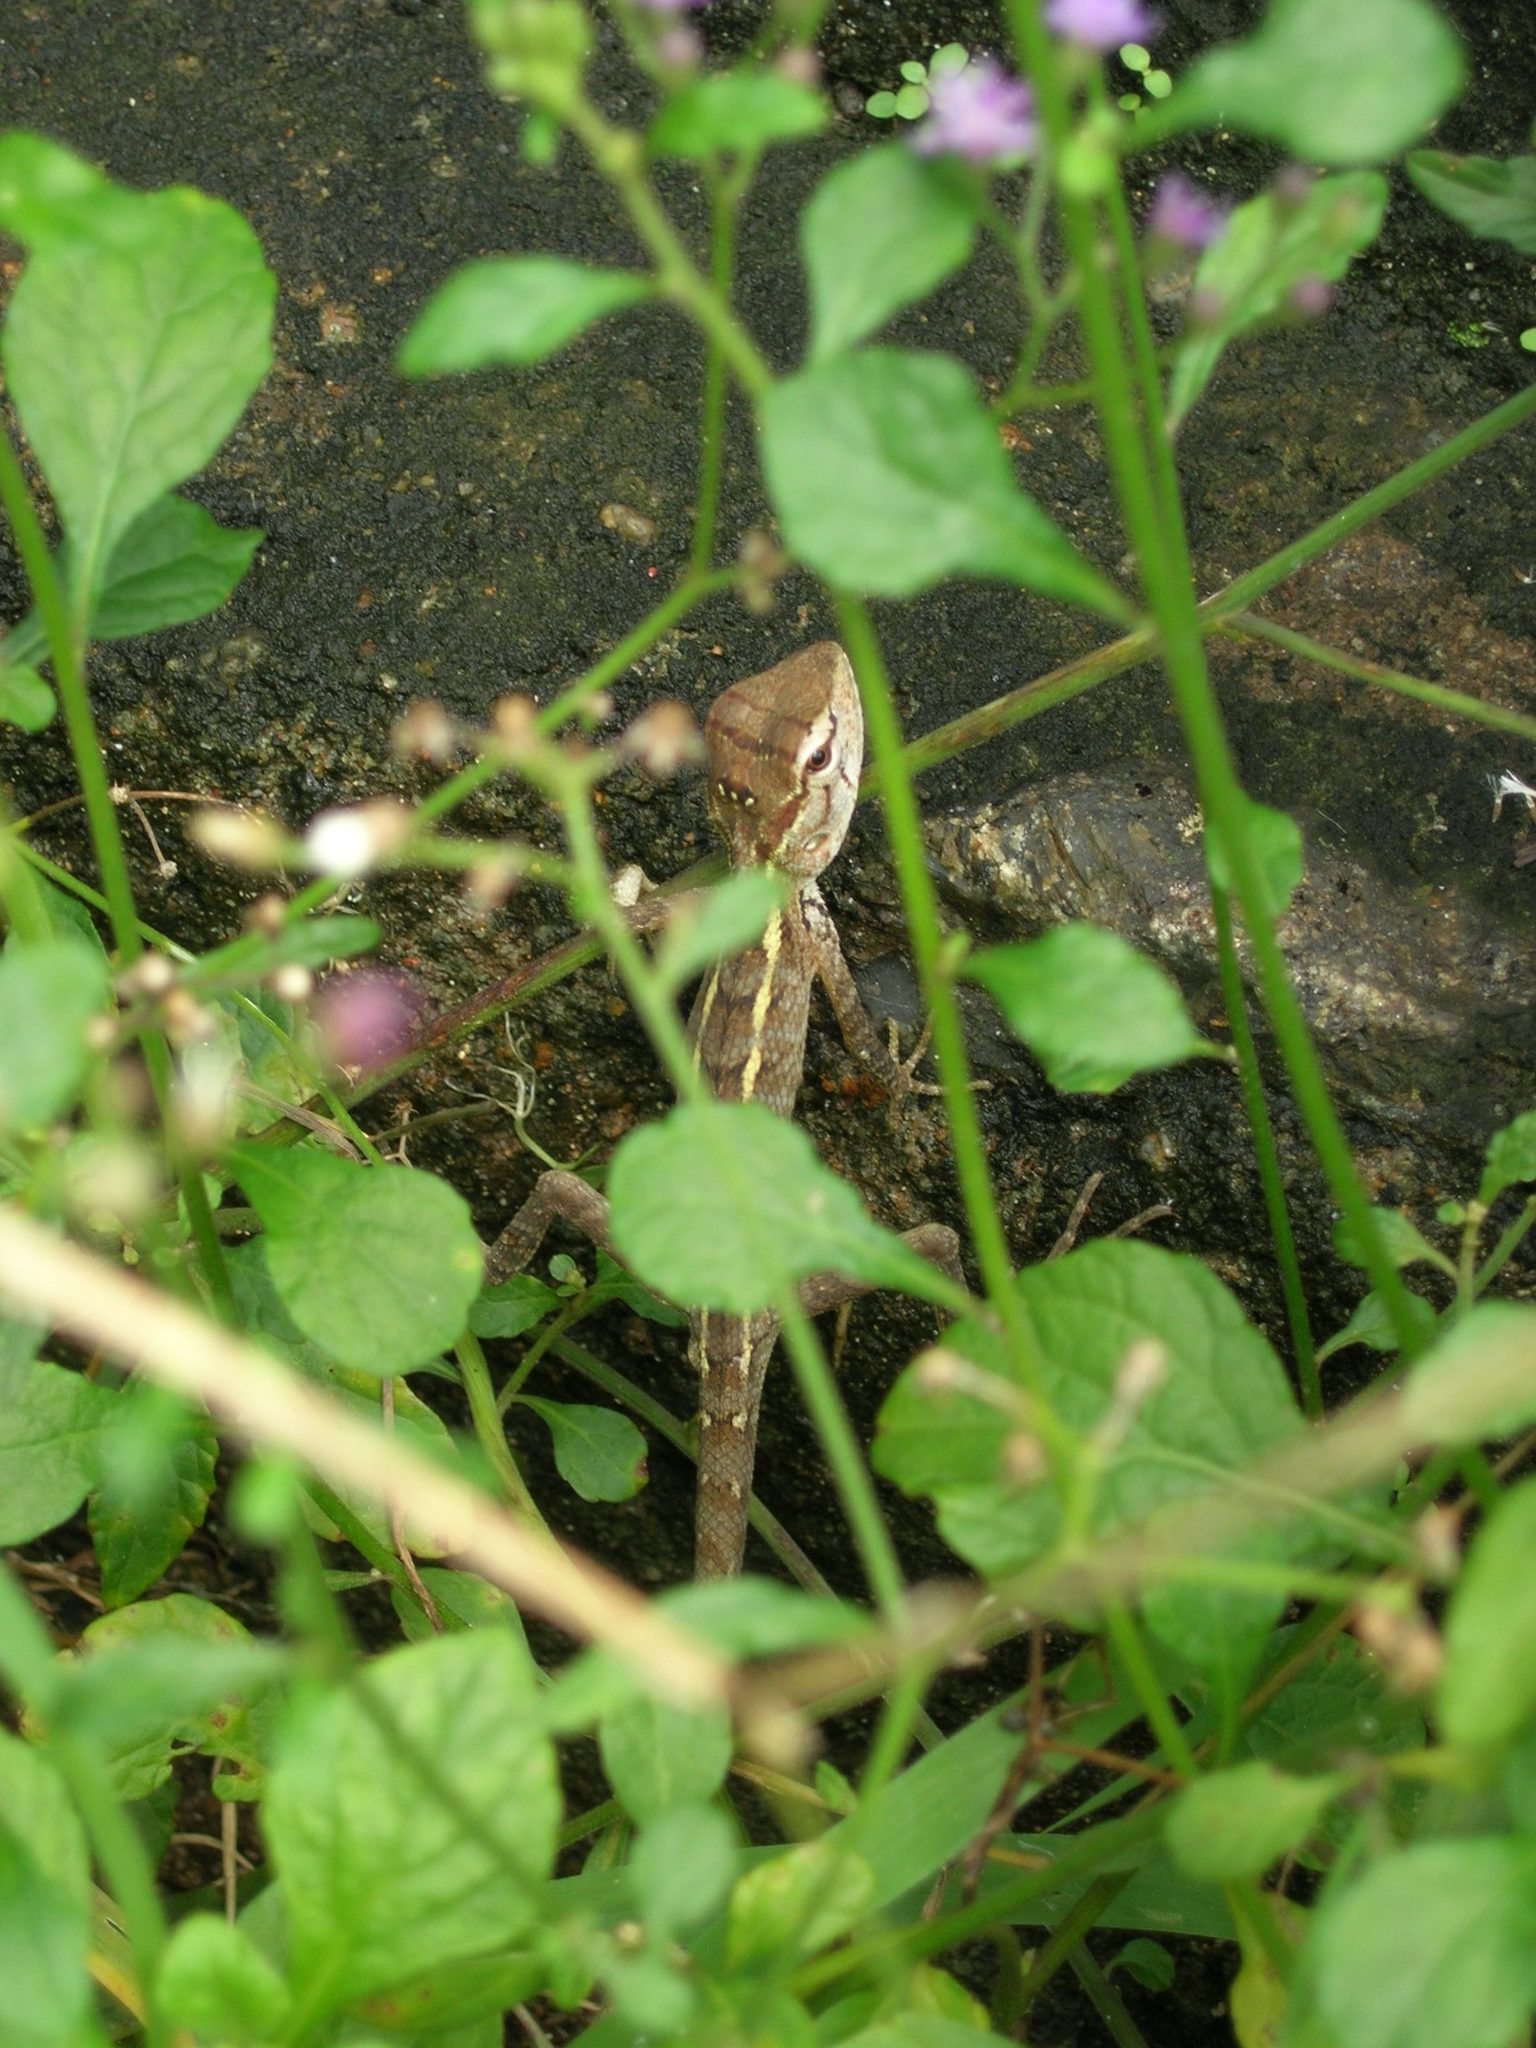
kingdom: Animalia
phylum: Chordata
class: Squamata
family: Agamidae
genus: Calotes
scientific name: Calotes versicolor
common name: Oriental garden lizard
